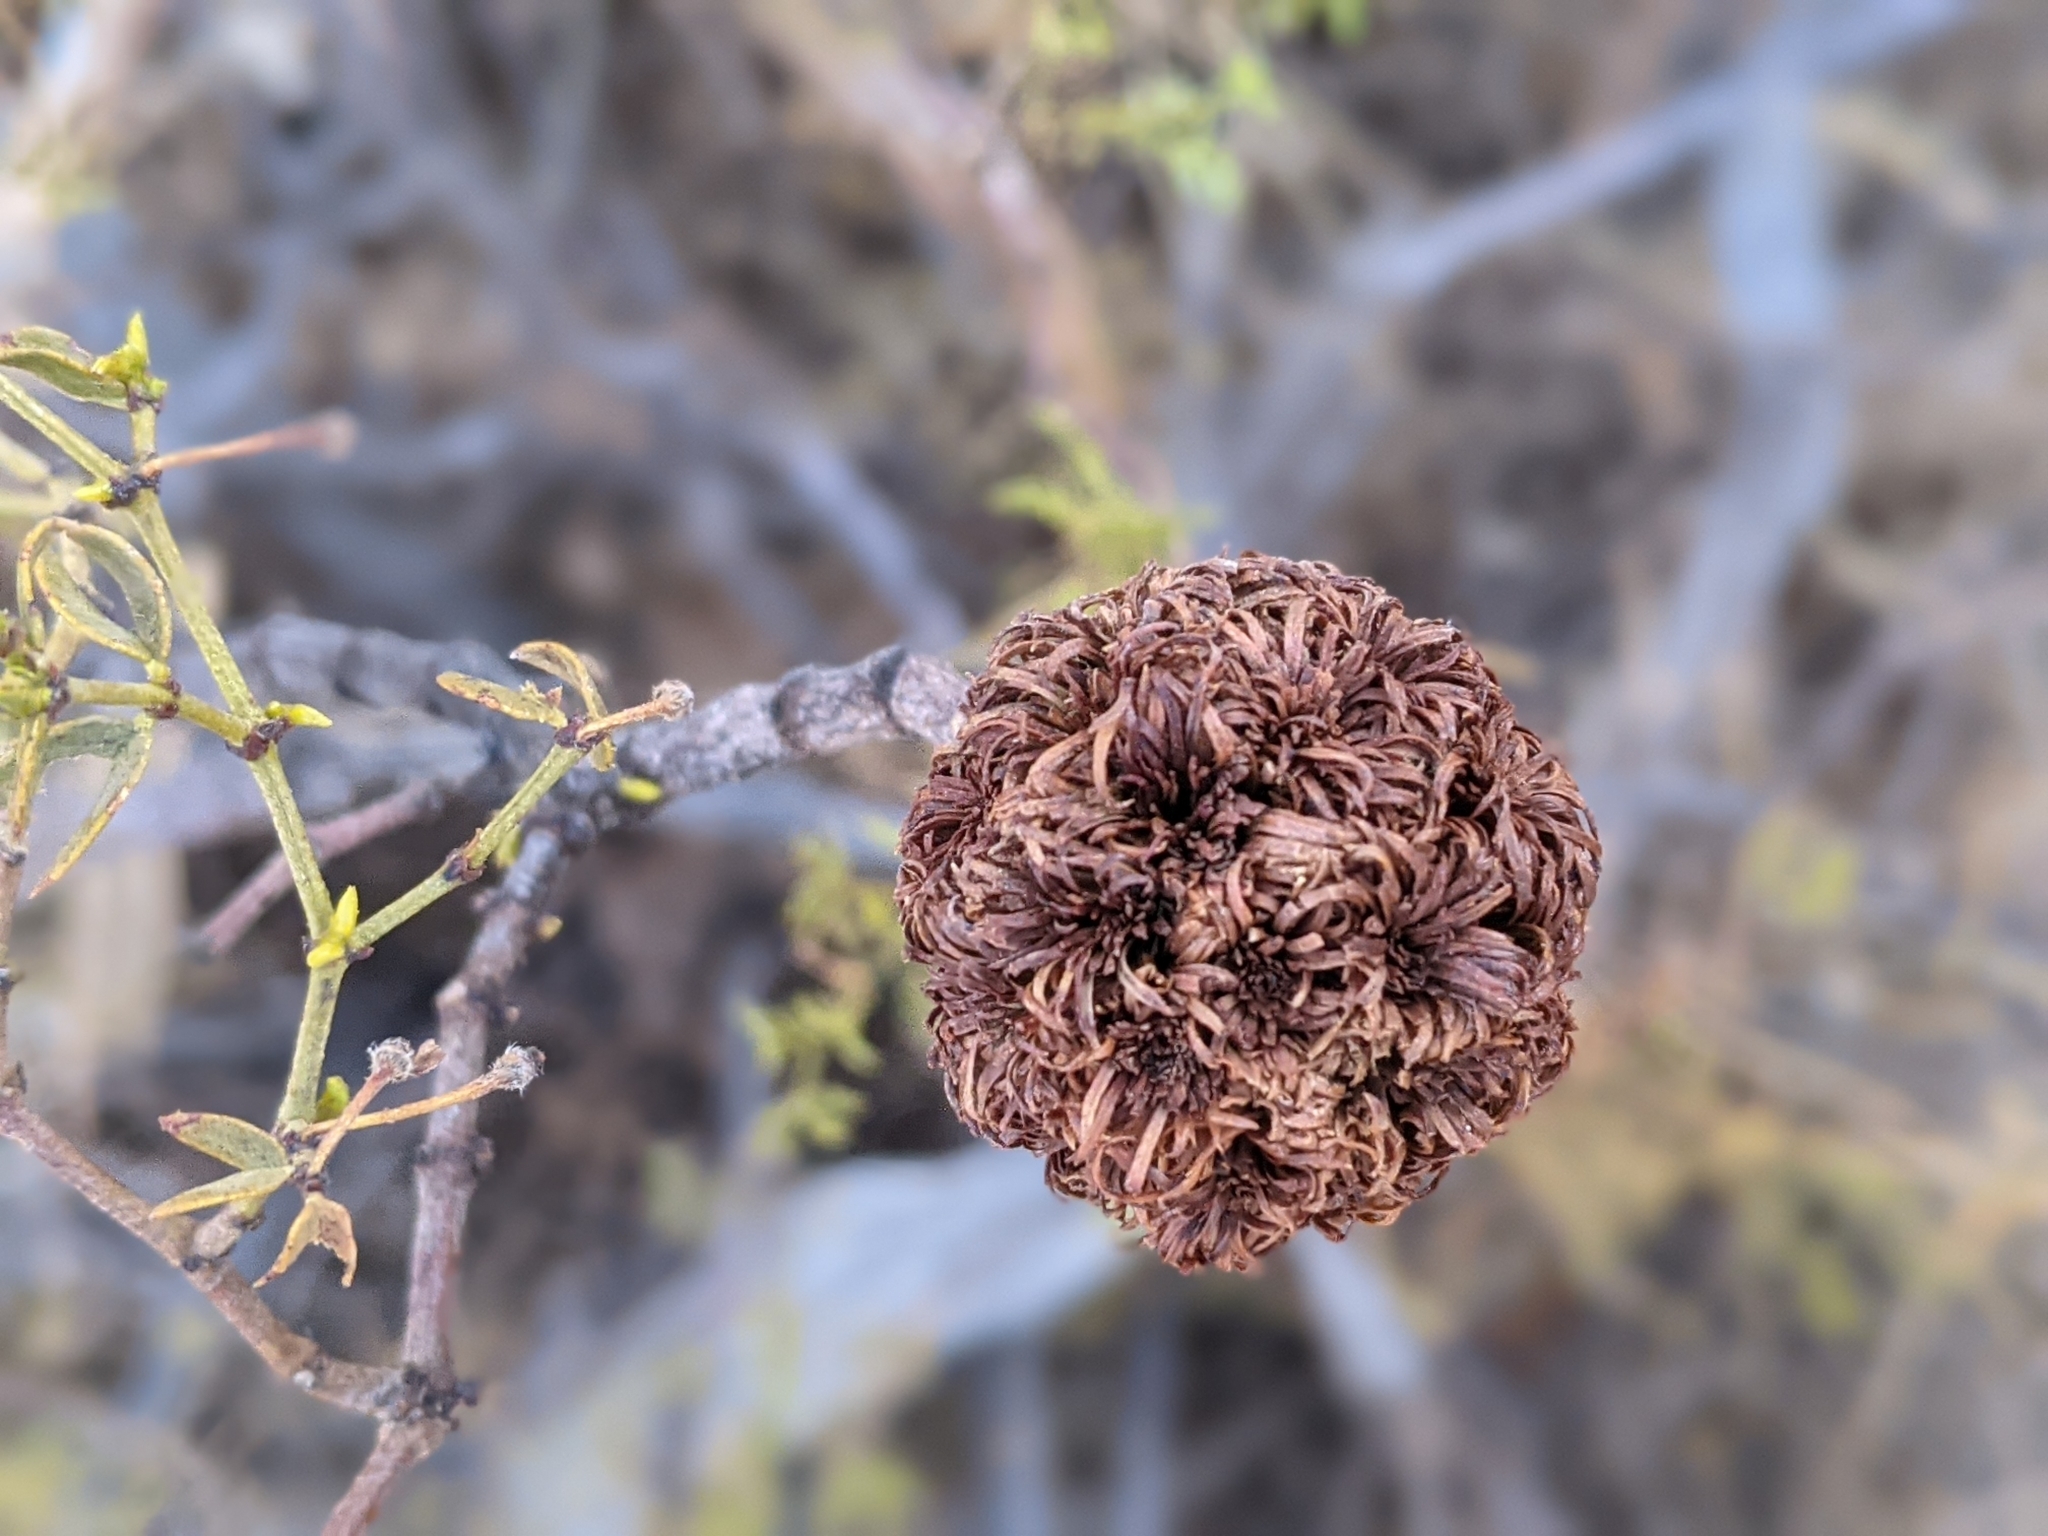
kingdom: Animalia
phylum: Arthropoda
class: Insecta
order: Diptera
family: Cecidomyiidae
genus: Asphondylia
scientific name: Asphondylia auripila
